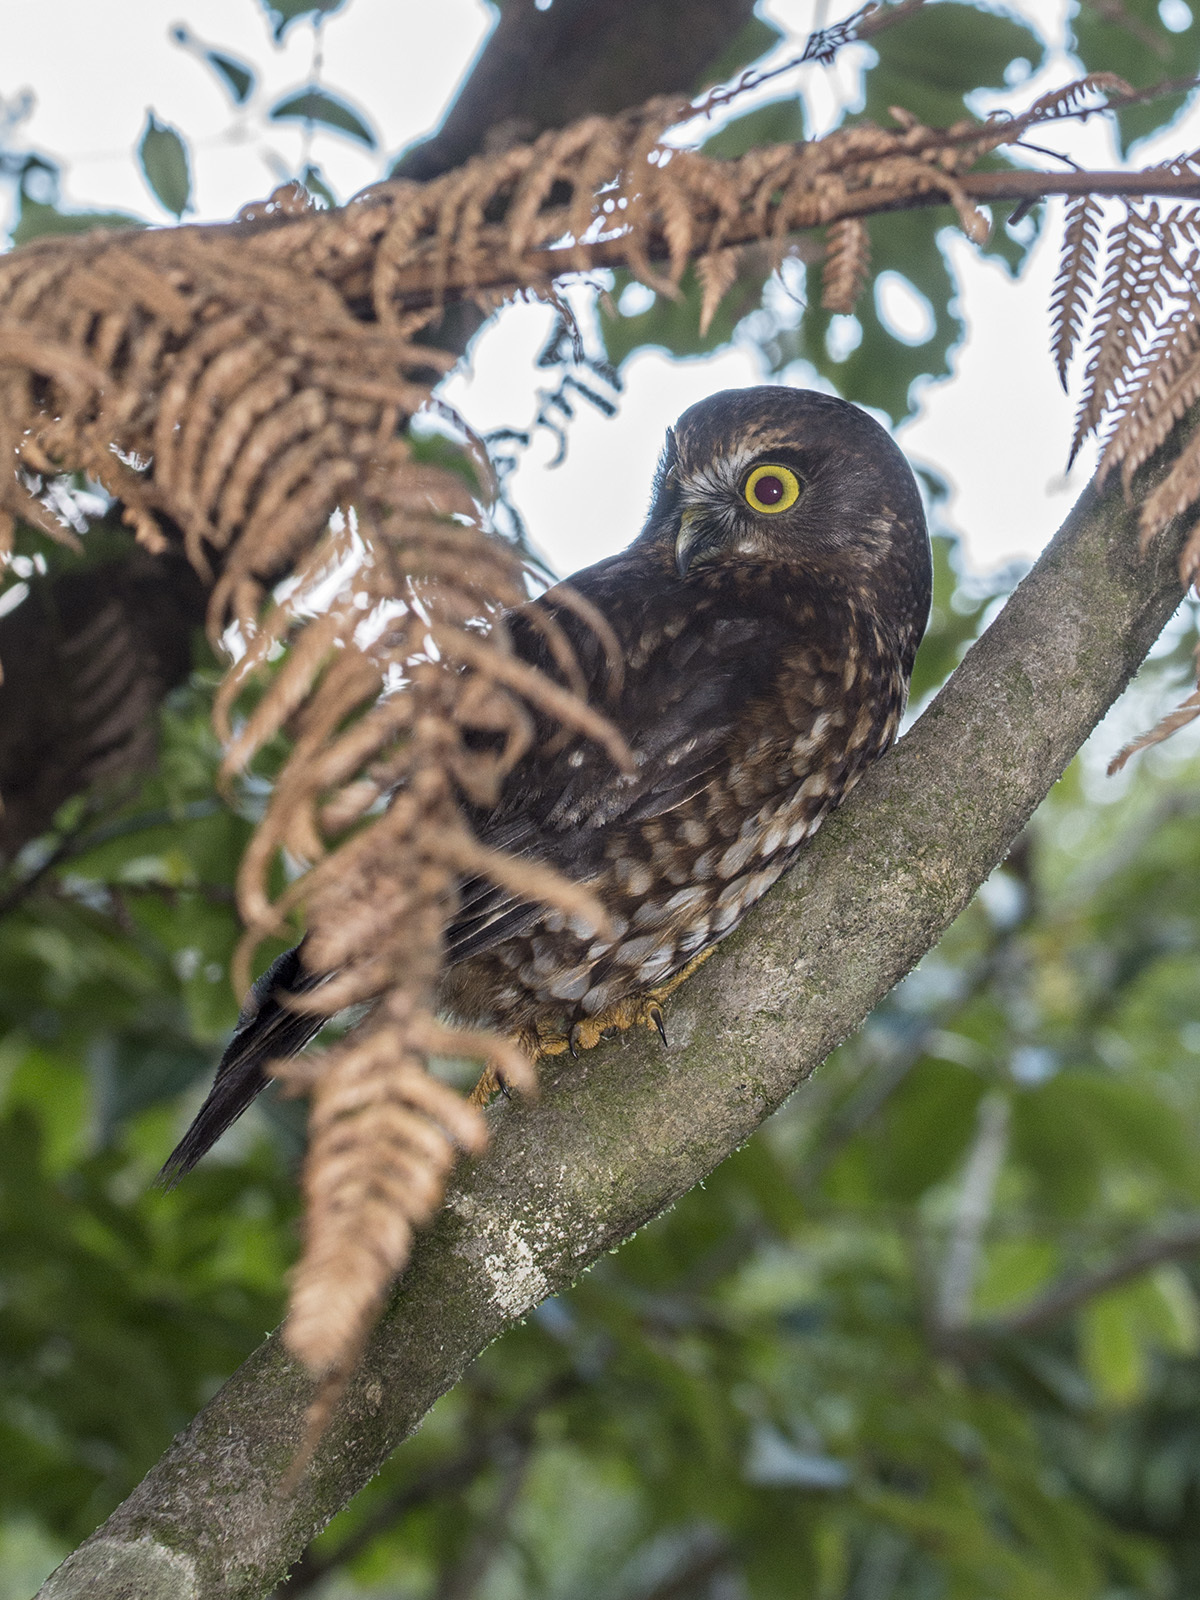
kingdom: Animalia
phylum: Chordata
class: Aves
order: Strigiformes
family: Strigidae
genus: Ninox
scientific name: Ninox novaeseelandiae
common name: Morepork
